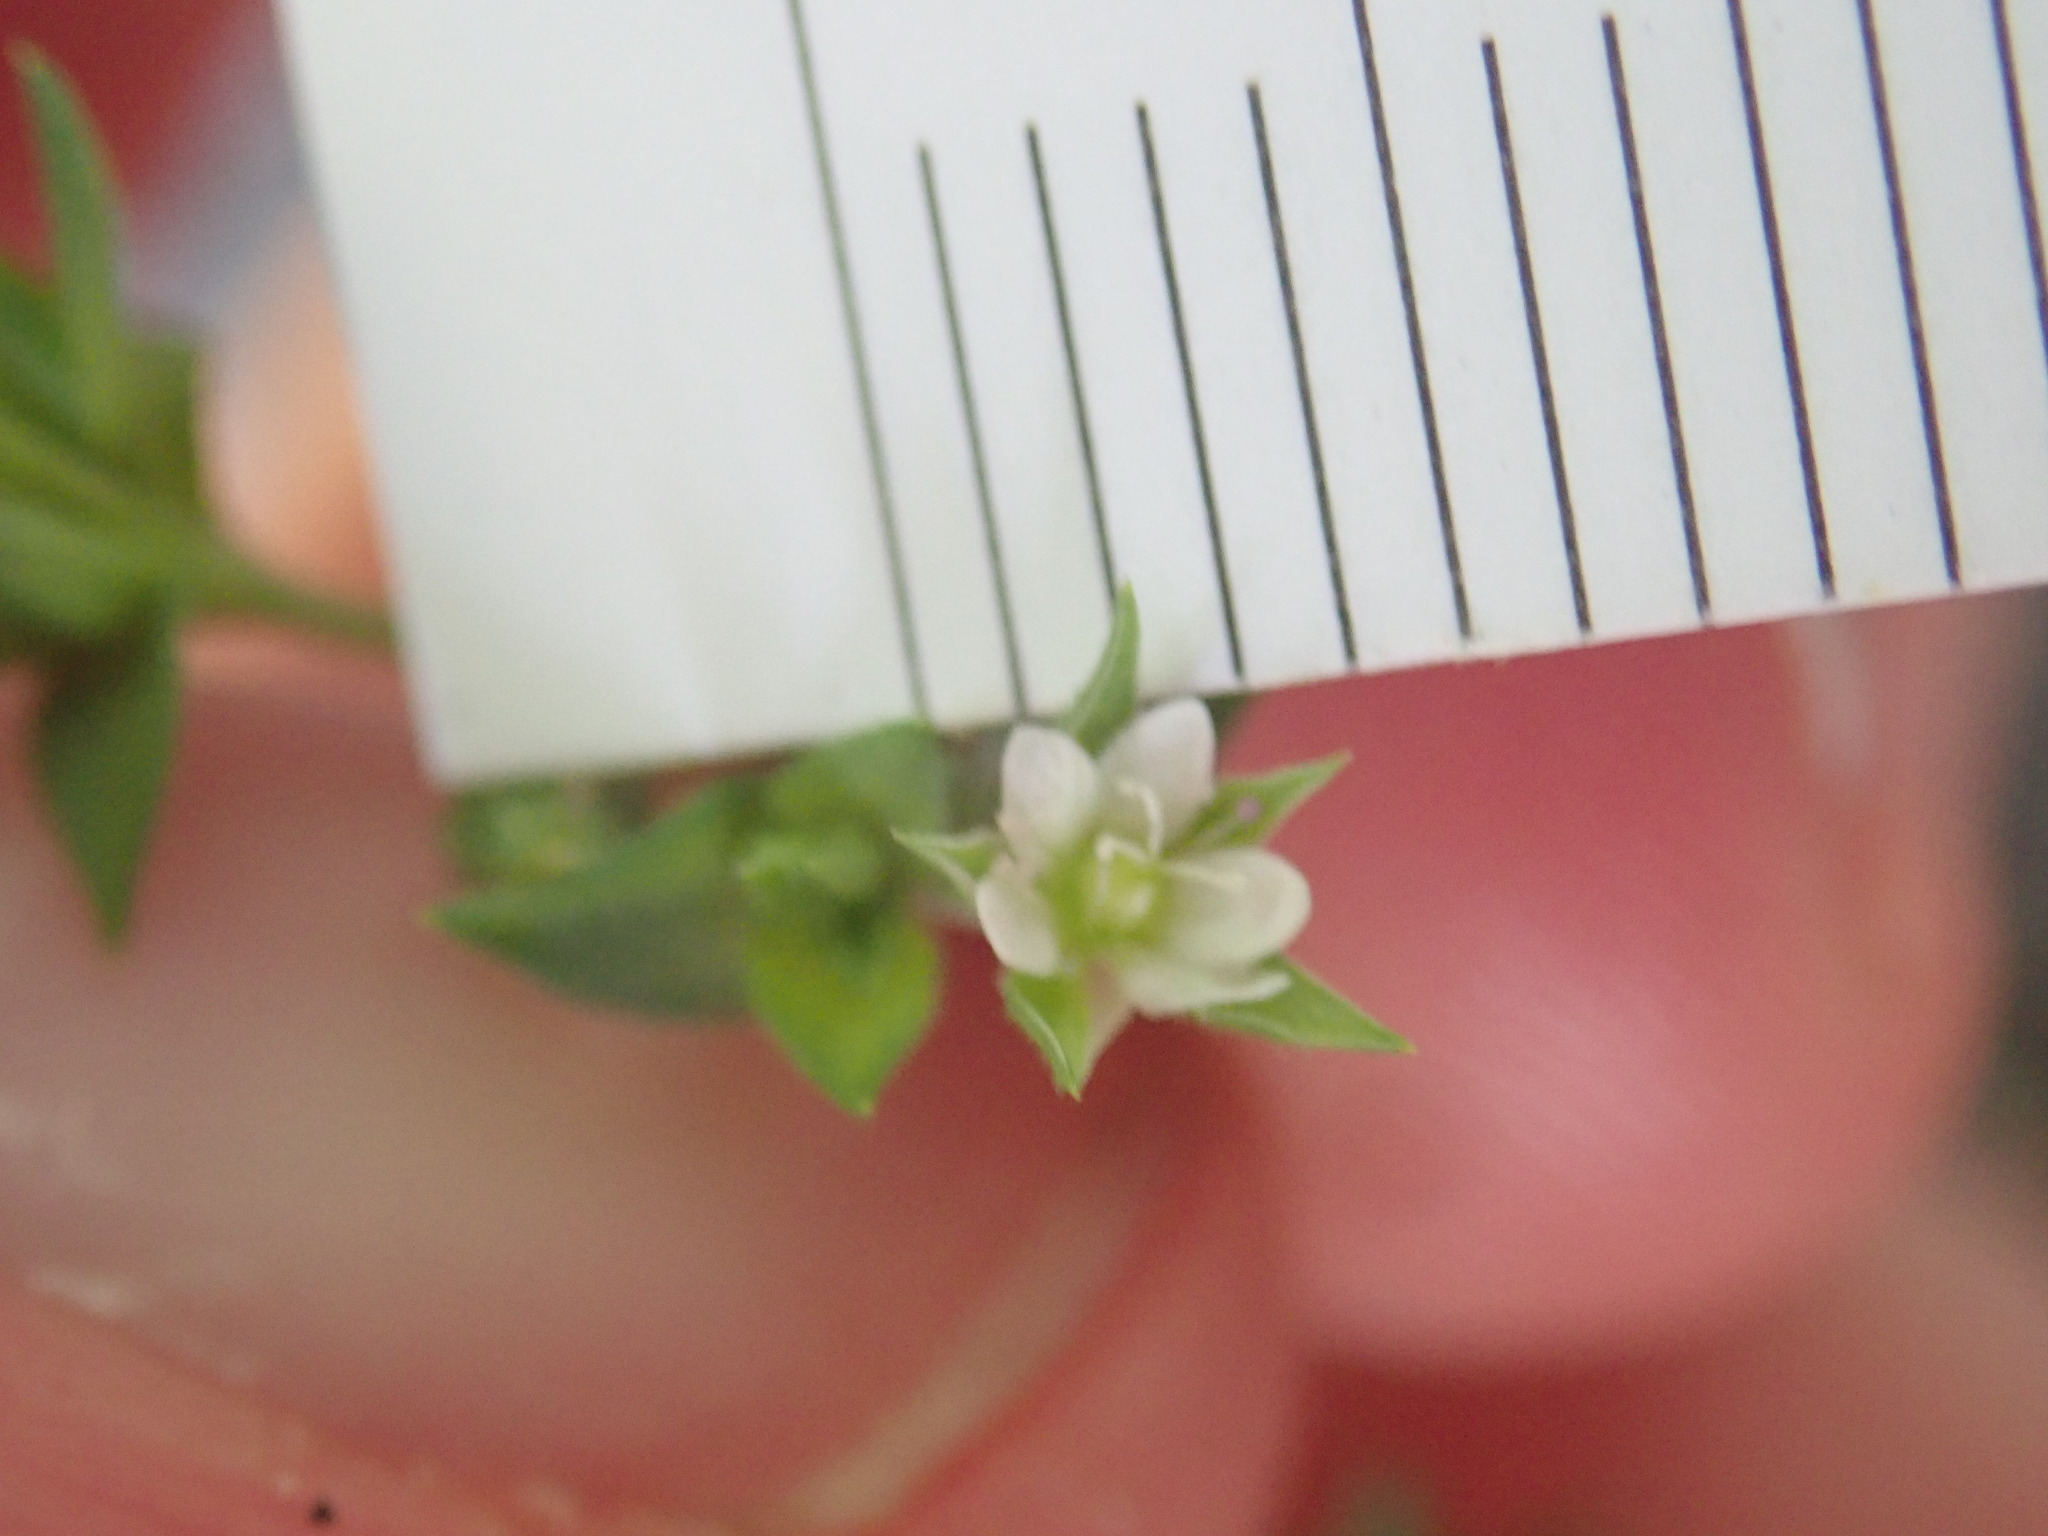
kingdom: Plantae
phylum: Tracheophyta
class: Magnoliopsida
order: Caryophyllales
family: Caryophyllaceae
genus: Arenaria
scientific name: Arenaria serpyllifolia
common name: Thyme-leaved sandwort
